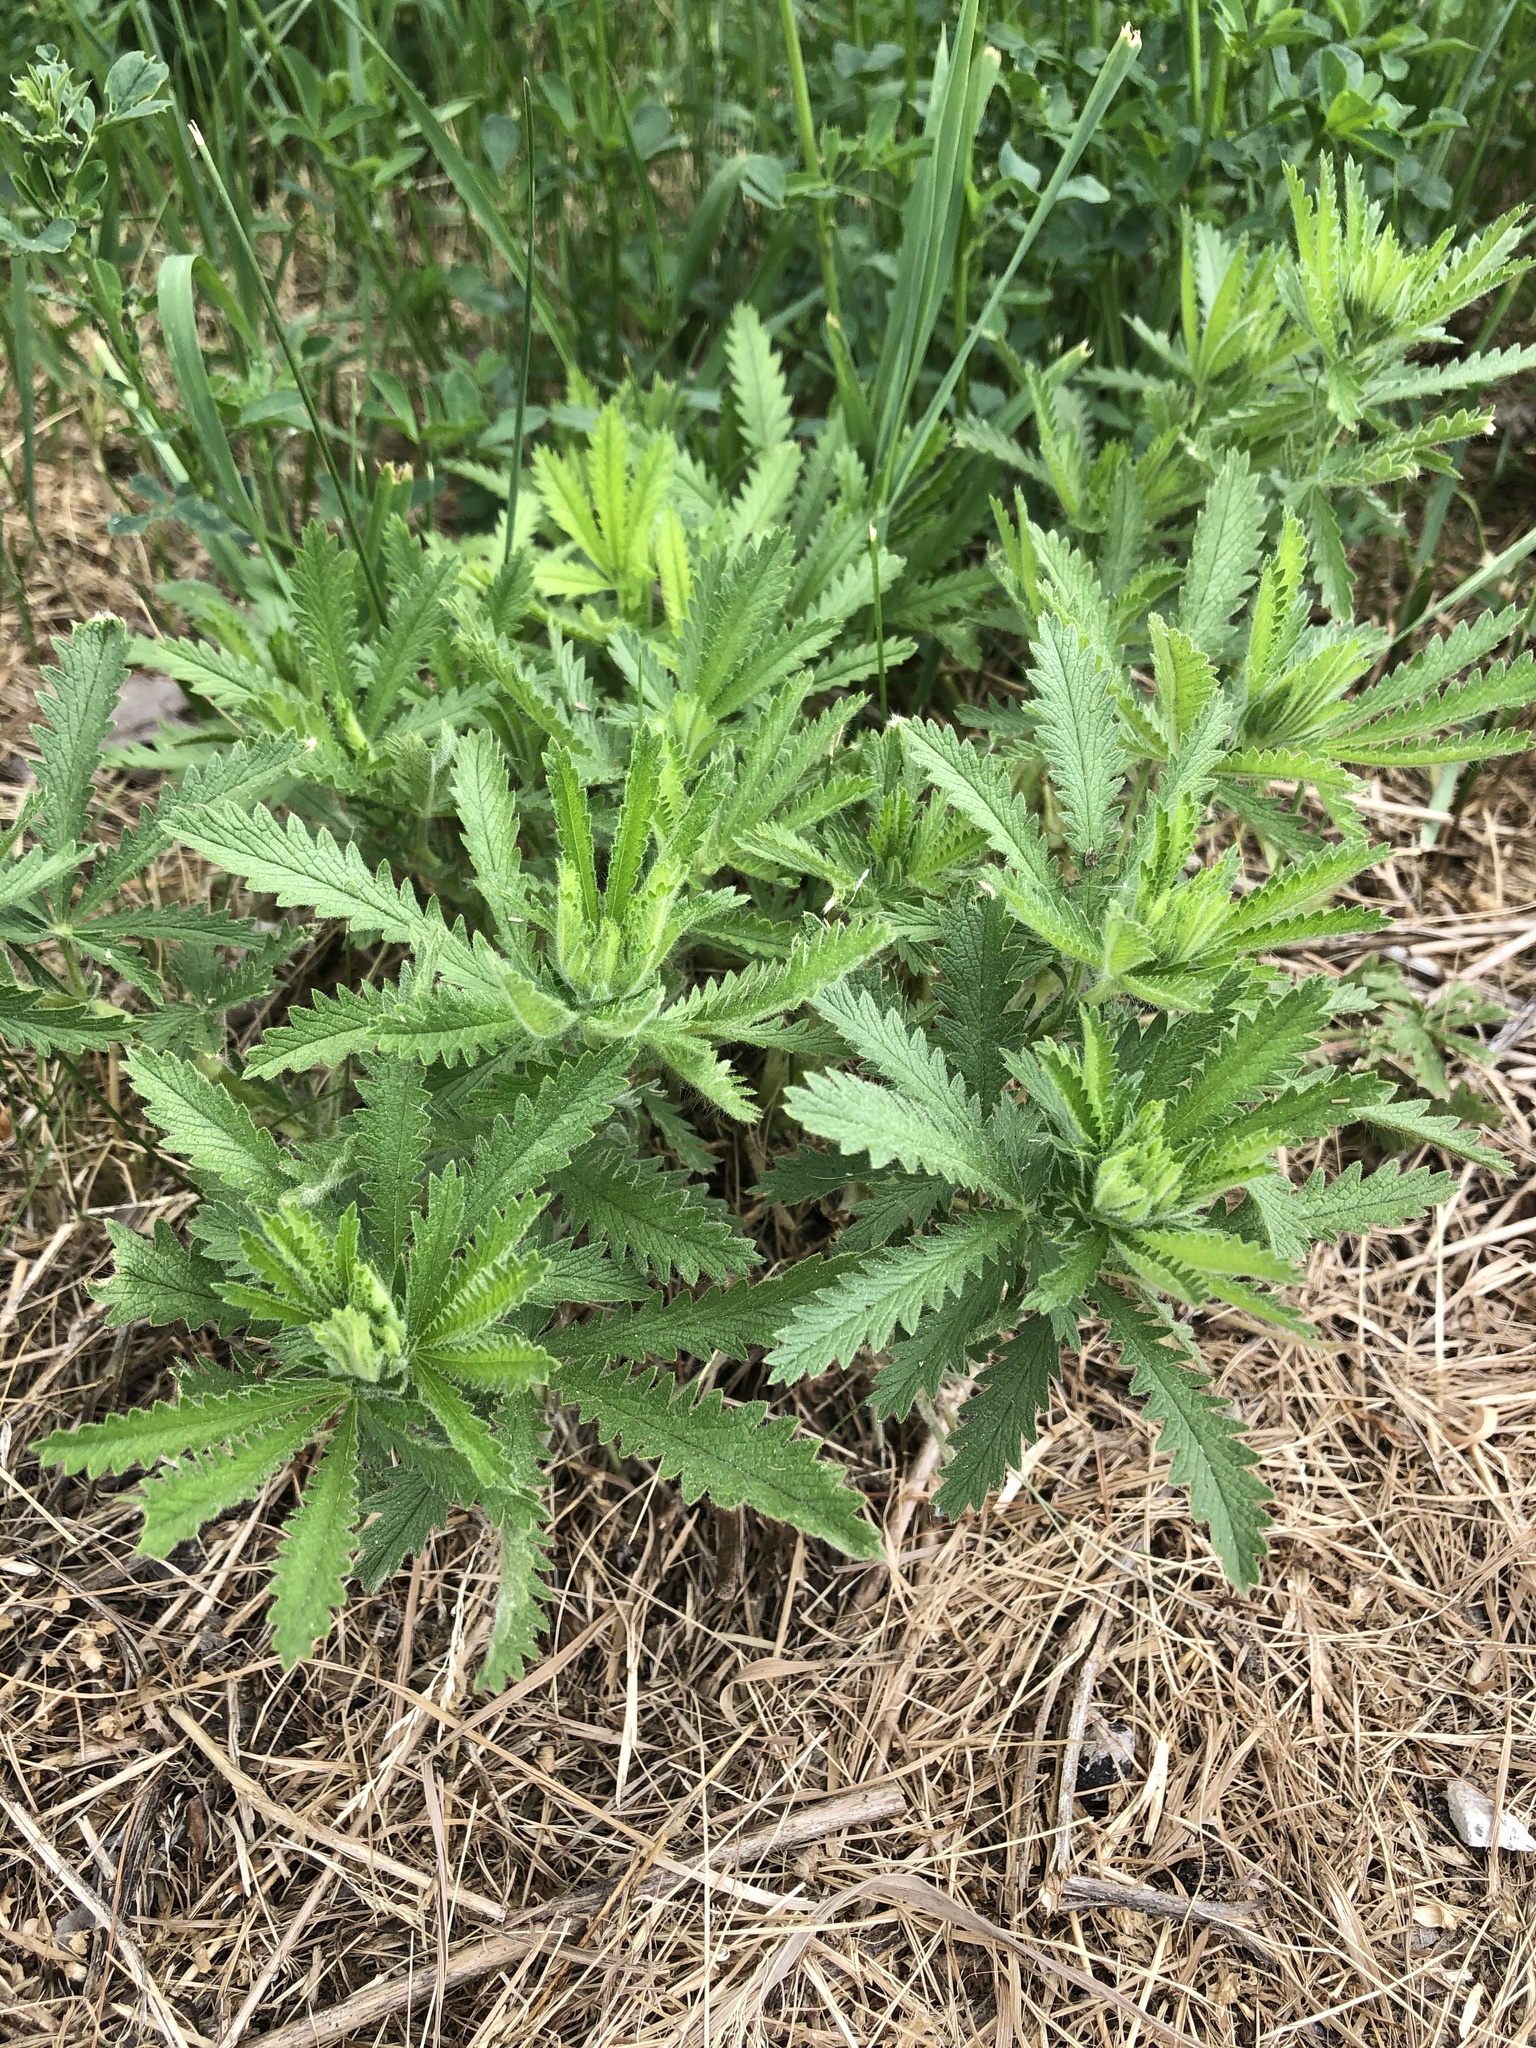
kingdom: Plantae
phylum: Tracheophyta
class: Magnoliopsida
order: Rosales
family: Rosaceae
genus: Potentilla
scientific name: Potentilla recta
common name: Sulphur cinquefoil
